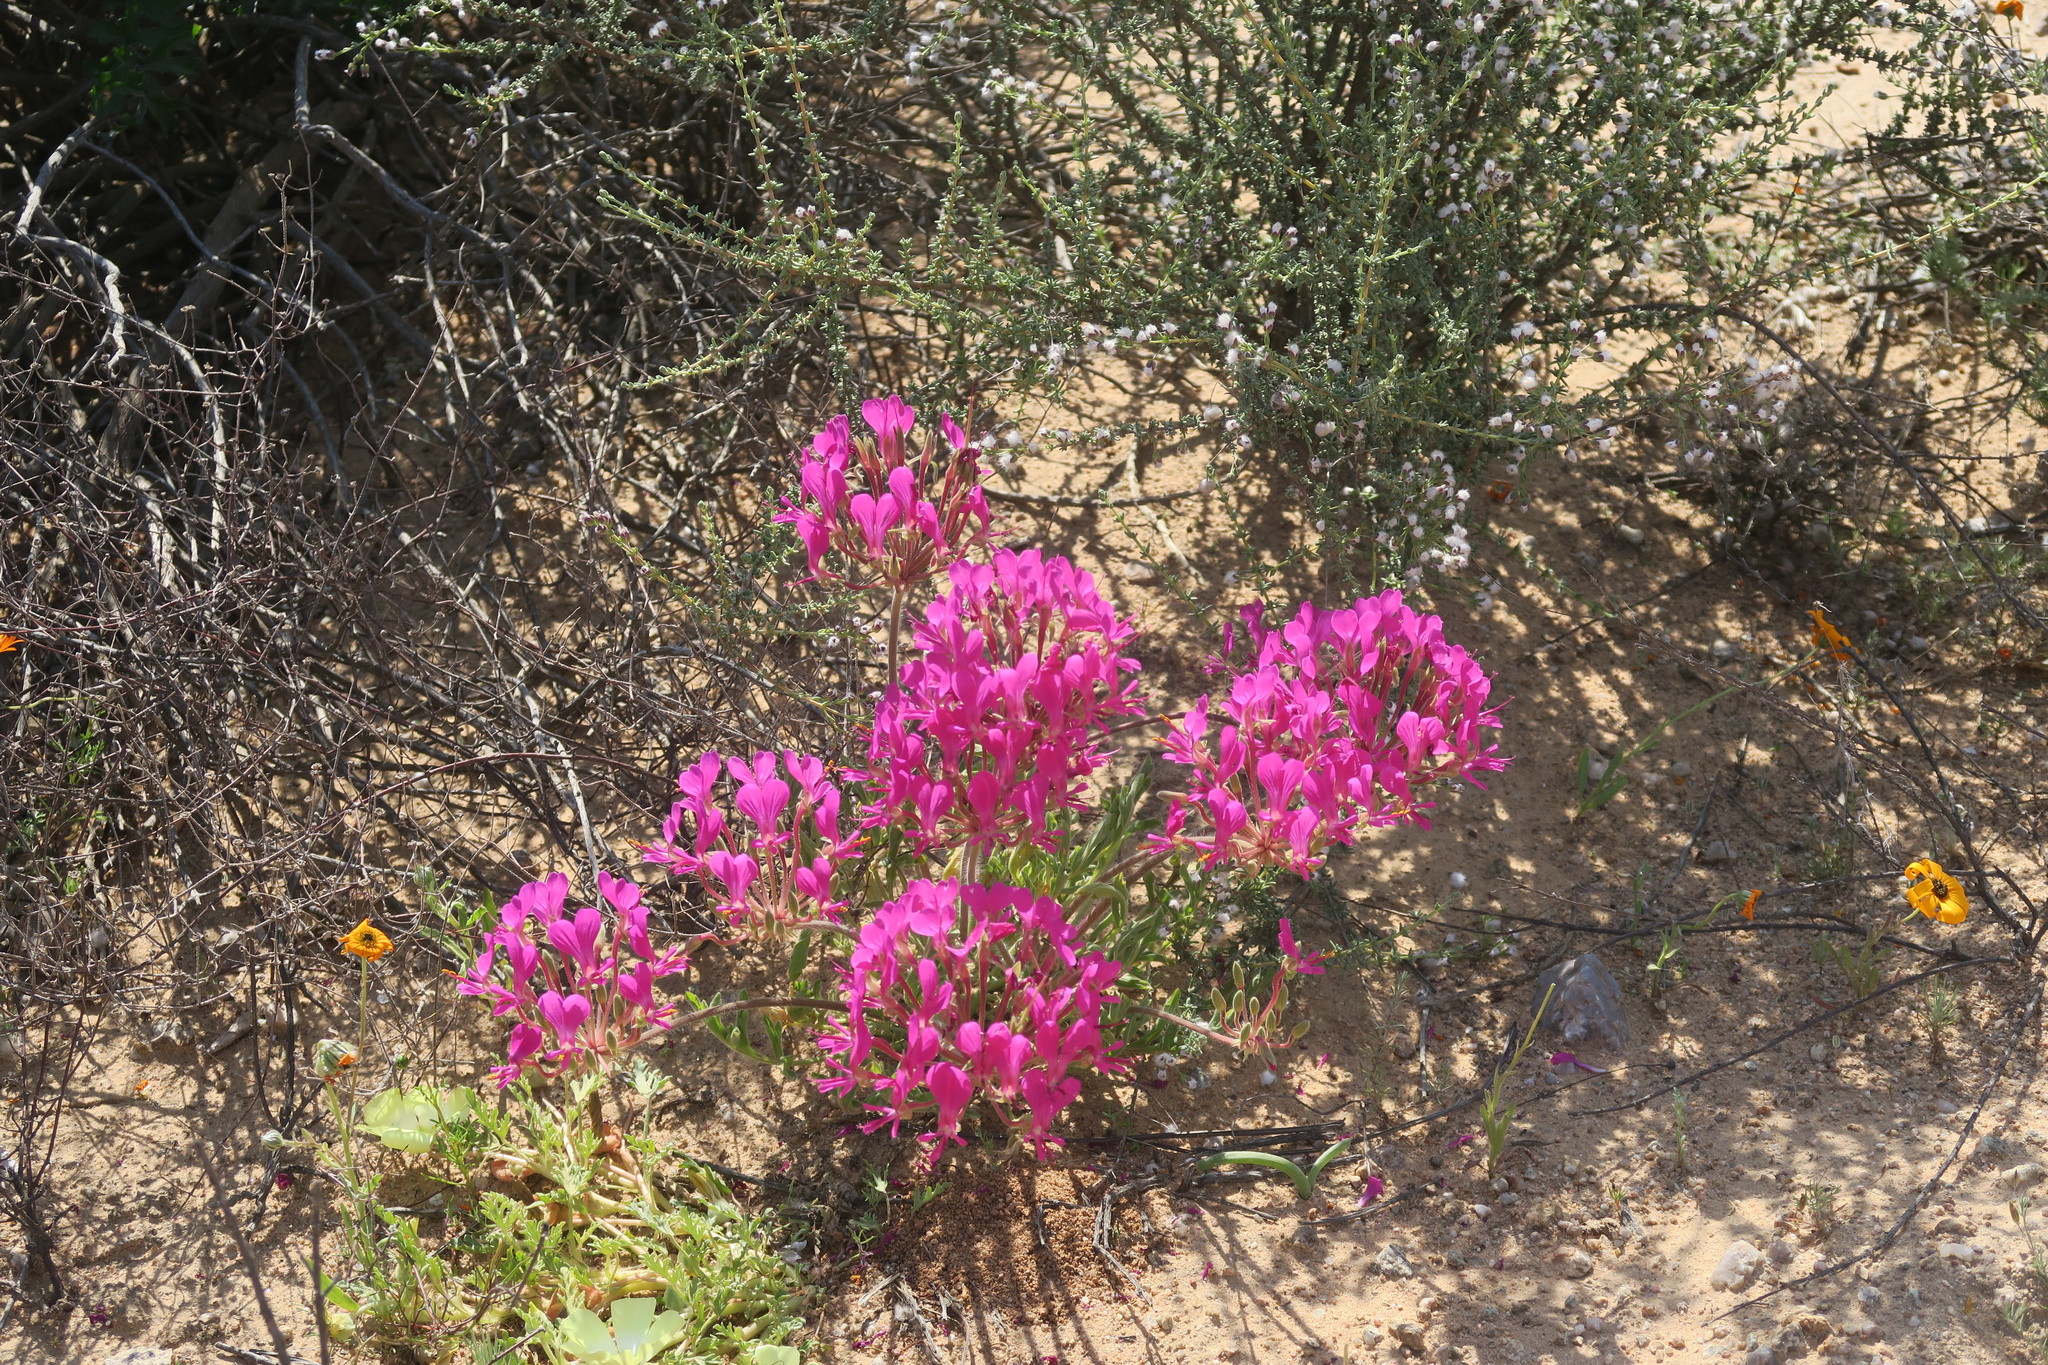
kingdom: Plantae
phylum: Tracheophyta
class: Magnoliopsida
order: Geraniales
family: Geraniaceae
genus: Pelargonium
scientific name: Pelargonium incrassatum
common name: Namaqualand beauty
